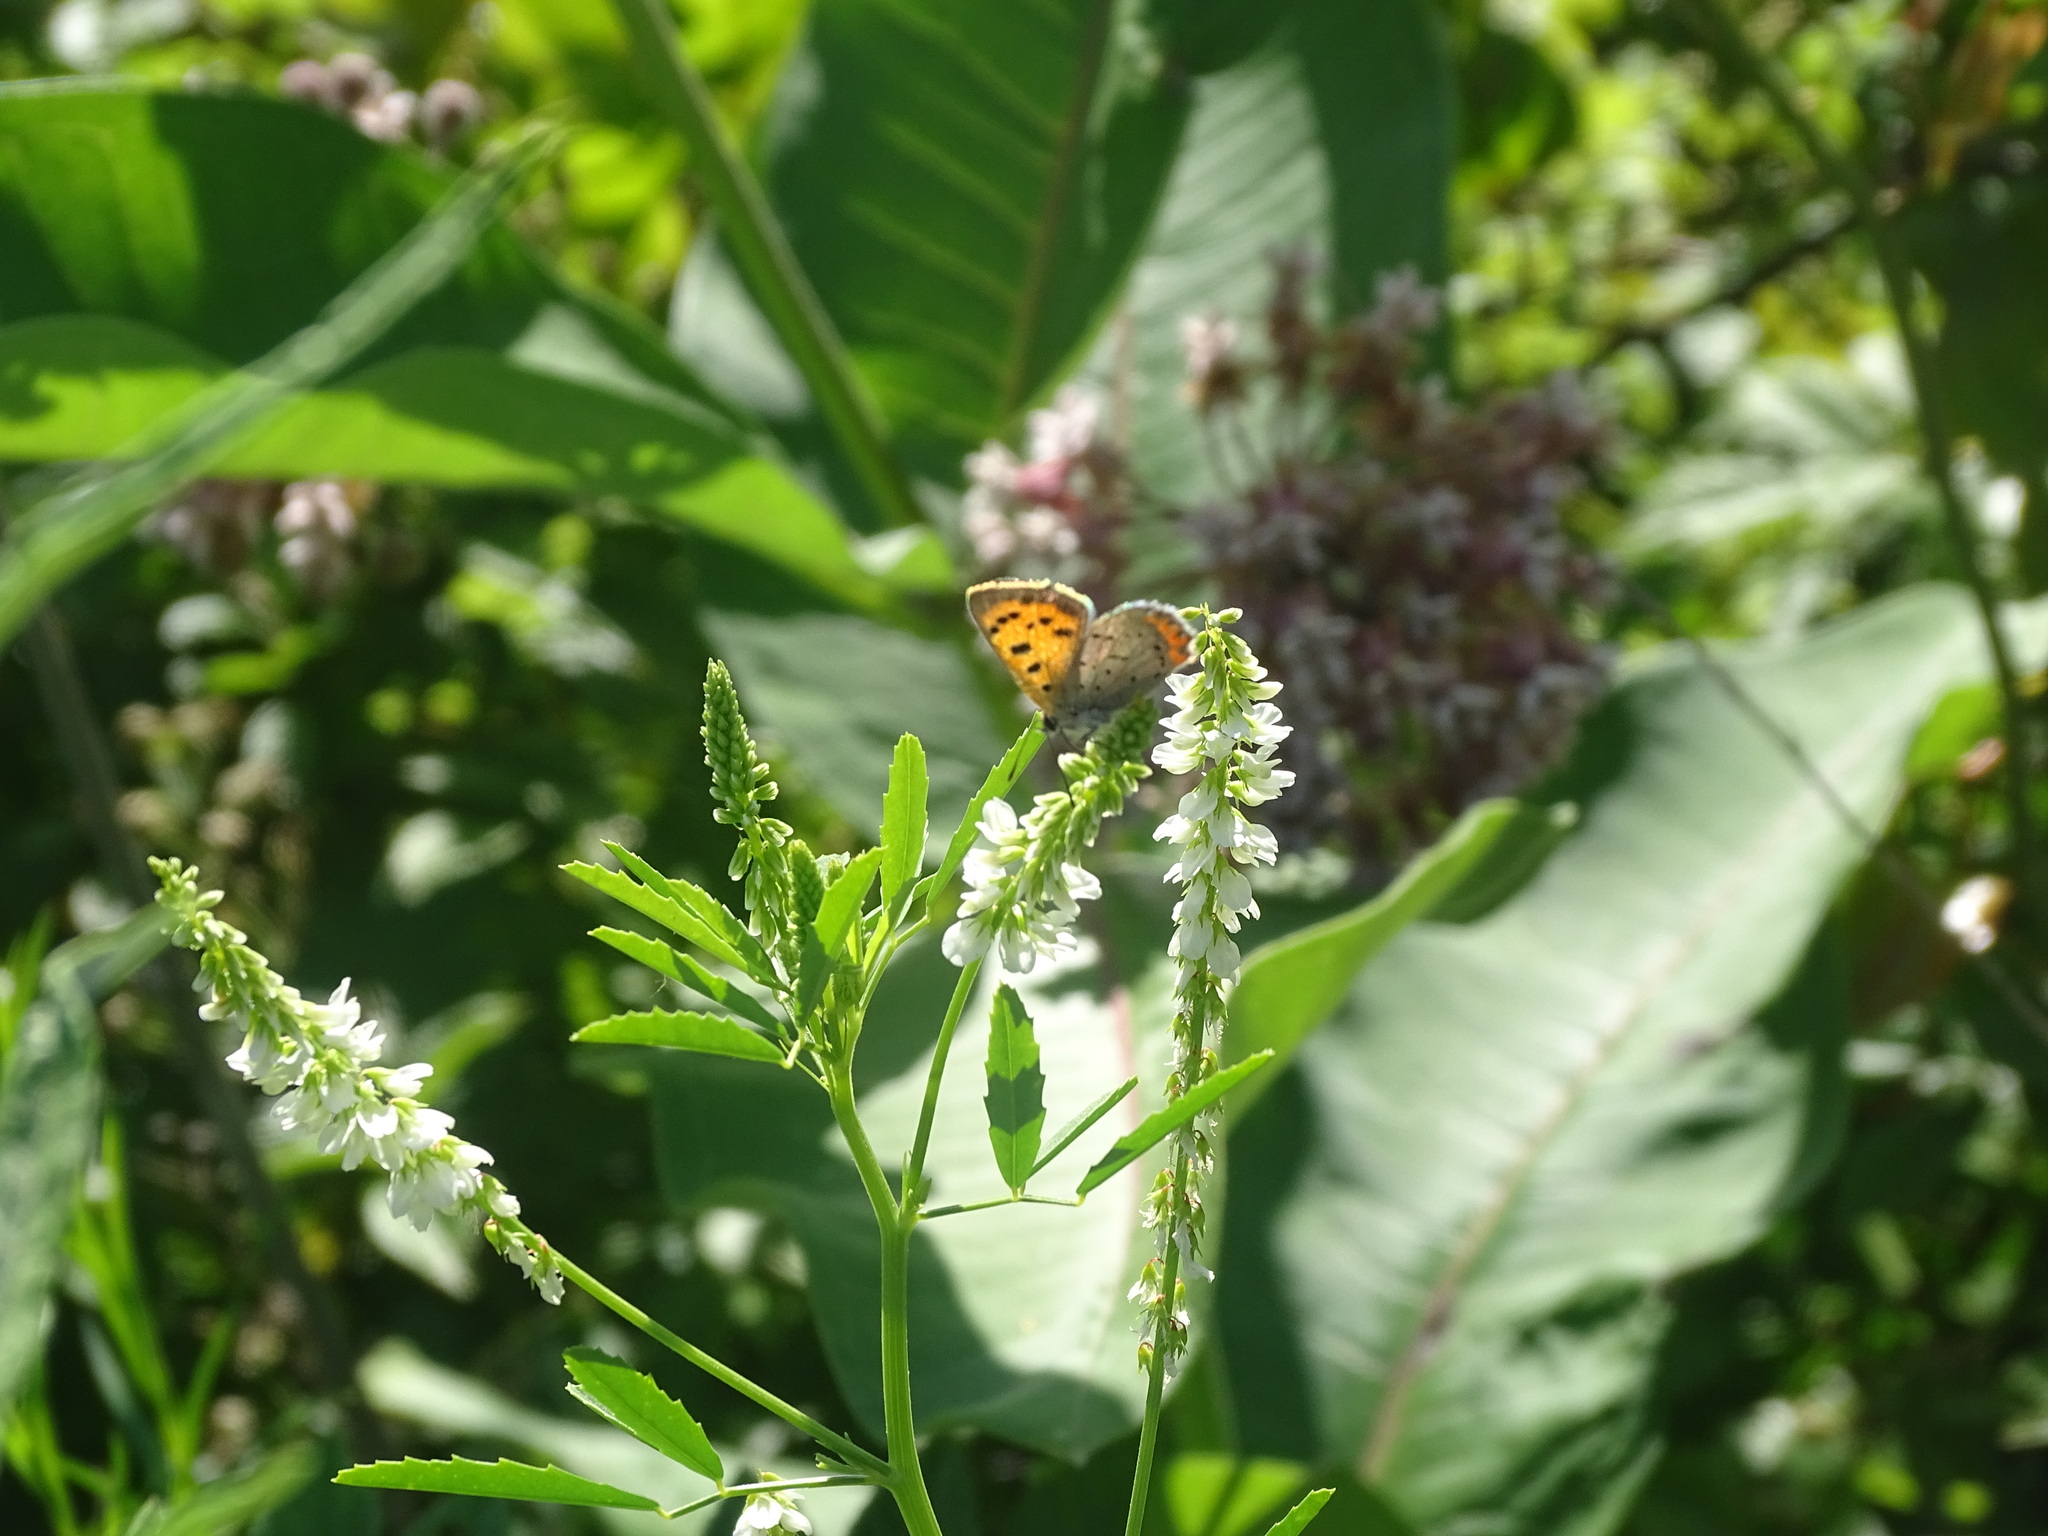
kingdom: Animalia
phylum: Arthropoda
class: Insecta
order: Lepidoptera
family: Lycaenidae
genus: Lycaena
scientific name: Lycaena hypophlaeas
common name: American copper
